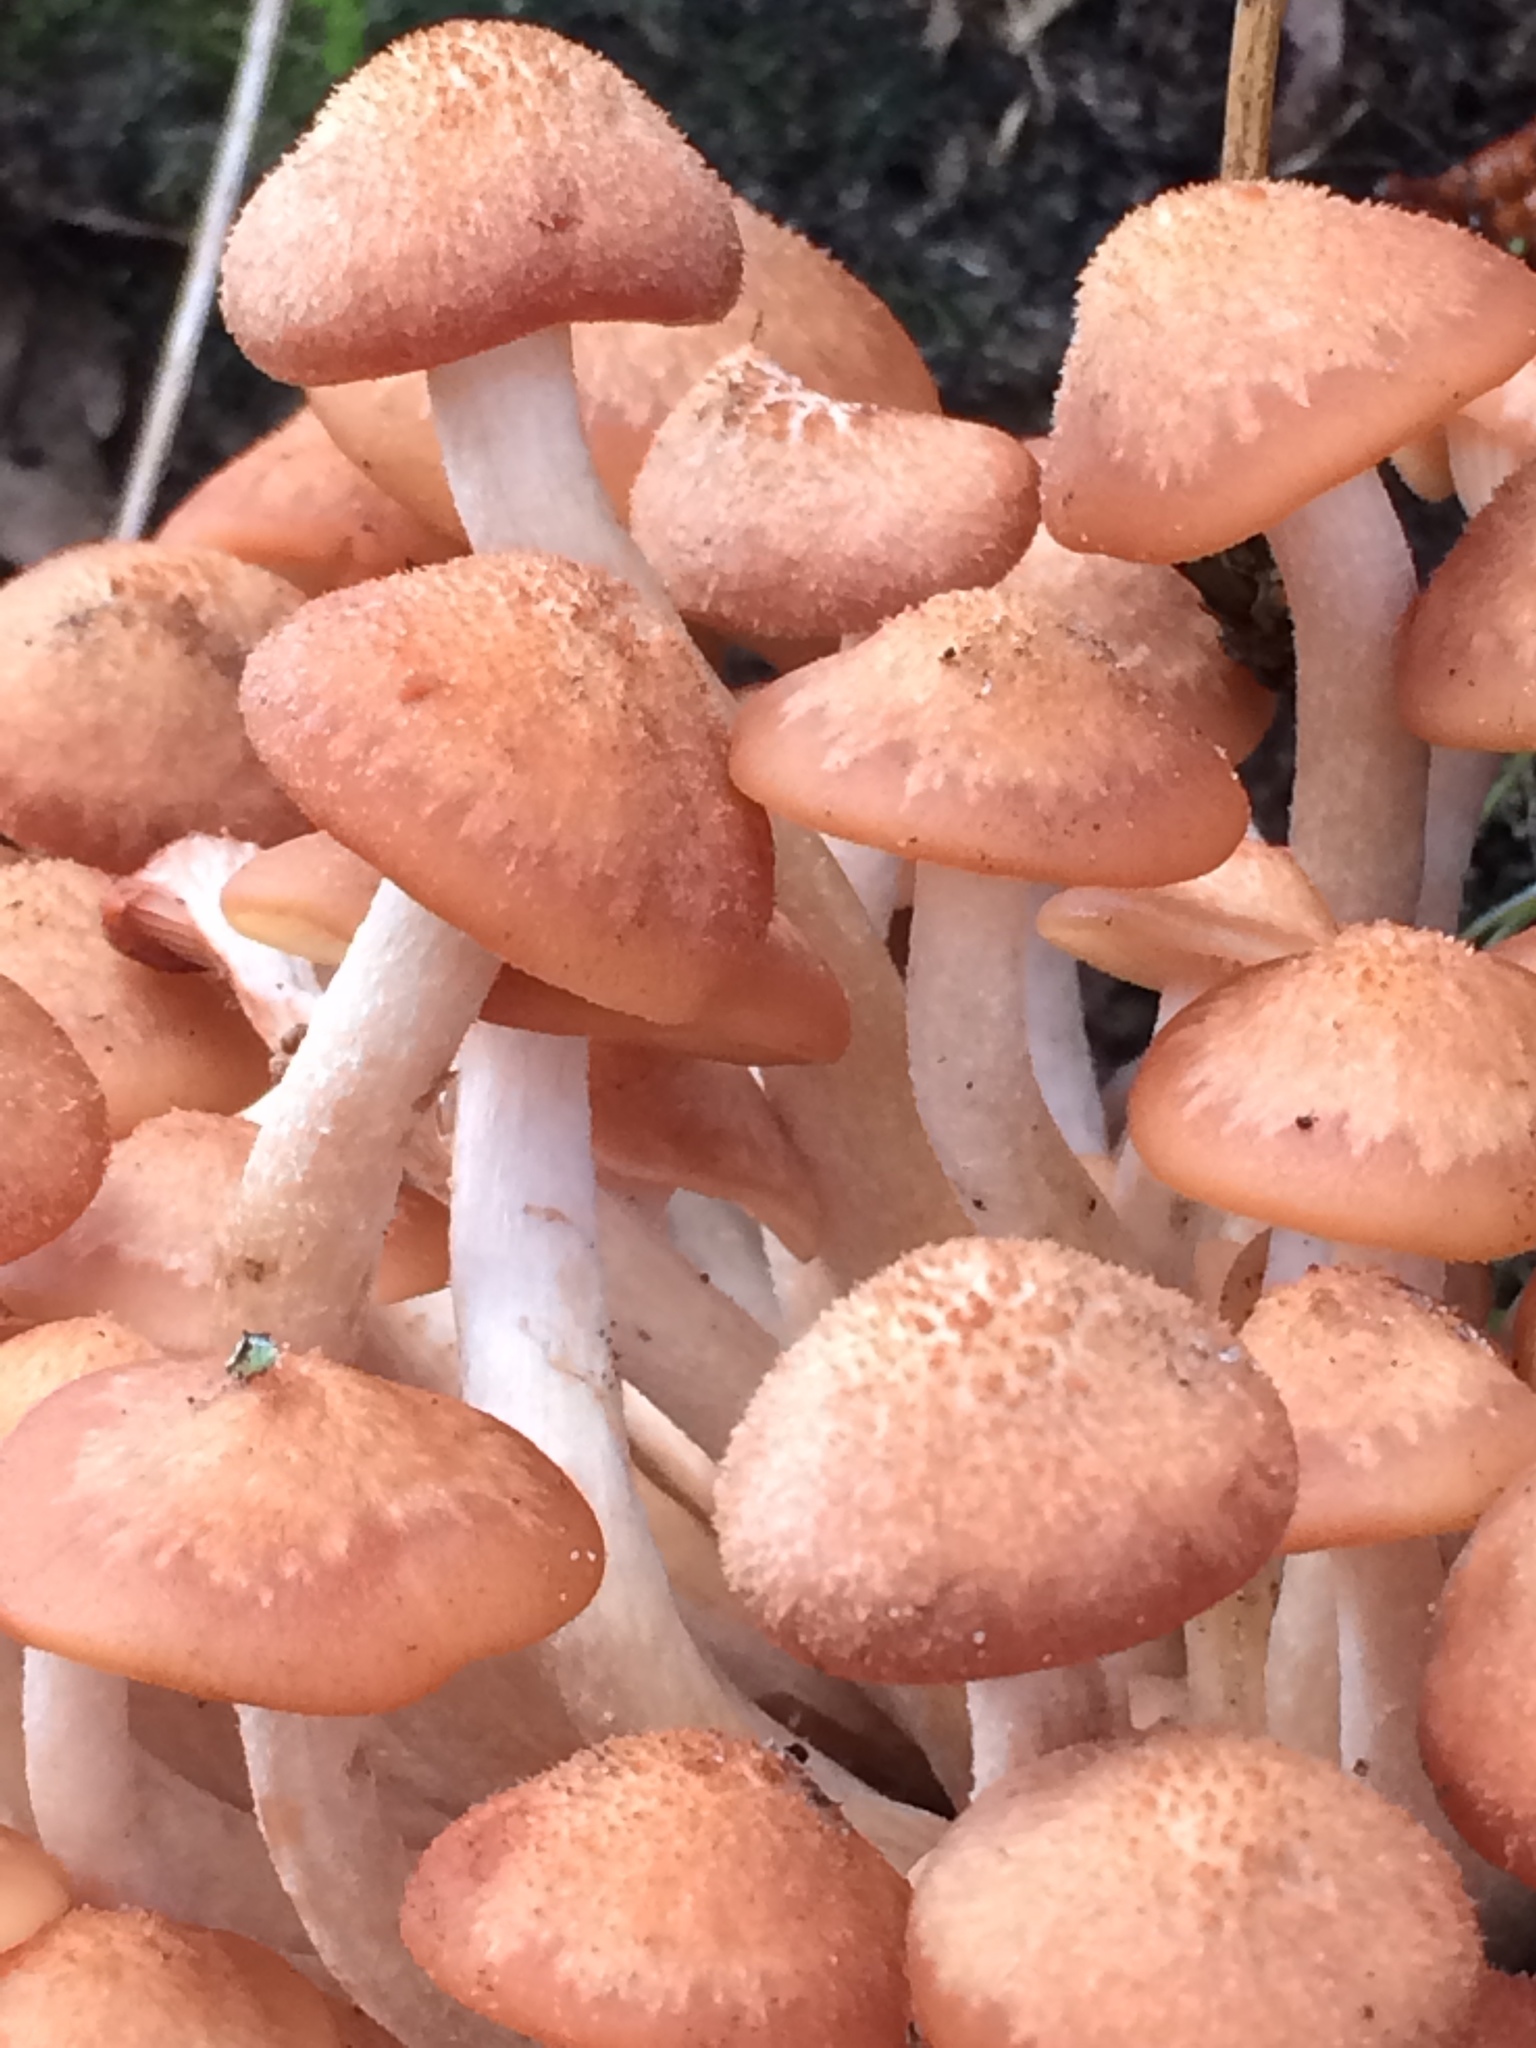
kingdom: Fungi
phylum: Basidiomycota
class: Agaricomycetes
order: Agaricales
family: Physalacriaceae
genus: Desarmillaria
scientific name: Desarmillaria caespitosa
